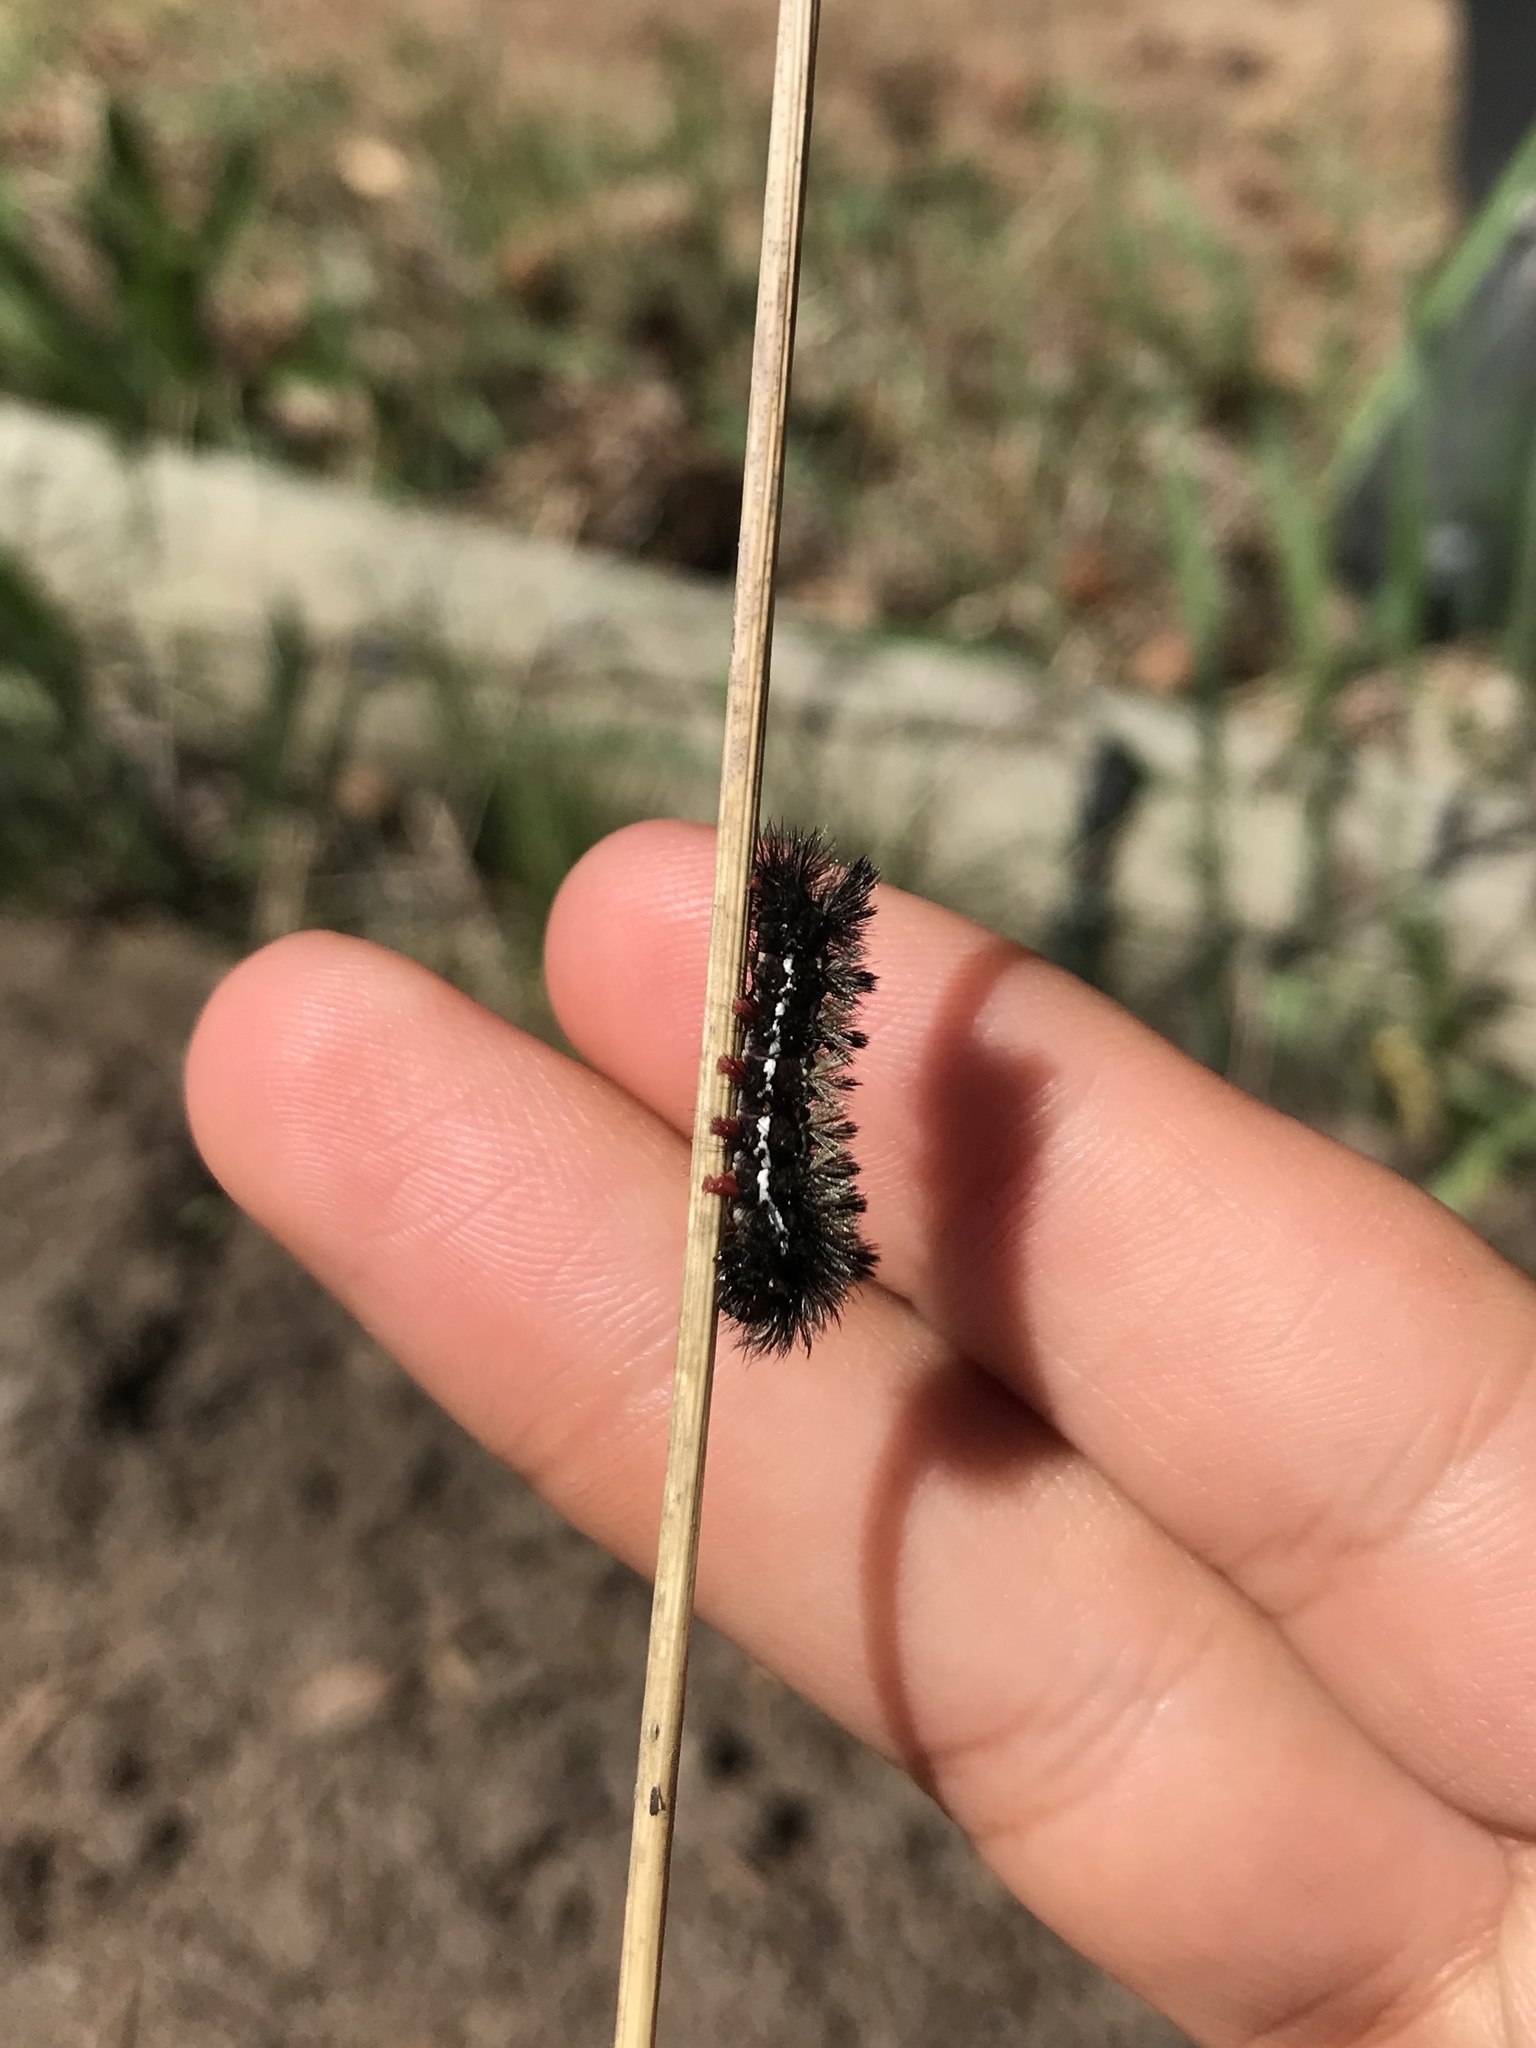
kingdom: Animalia
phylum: Arthropoda
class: Insecta
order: Lepidoptera
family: Erebidae
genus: Ctenucha
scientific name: Ctenucha virginica
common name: Virginia ctenucha moth
